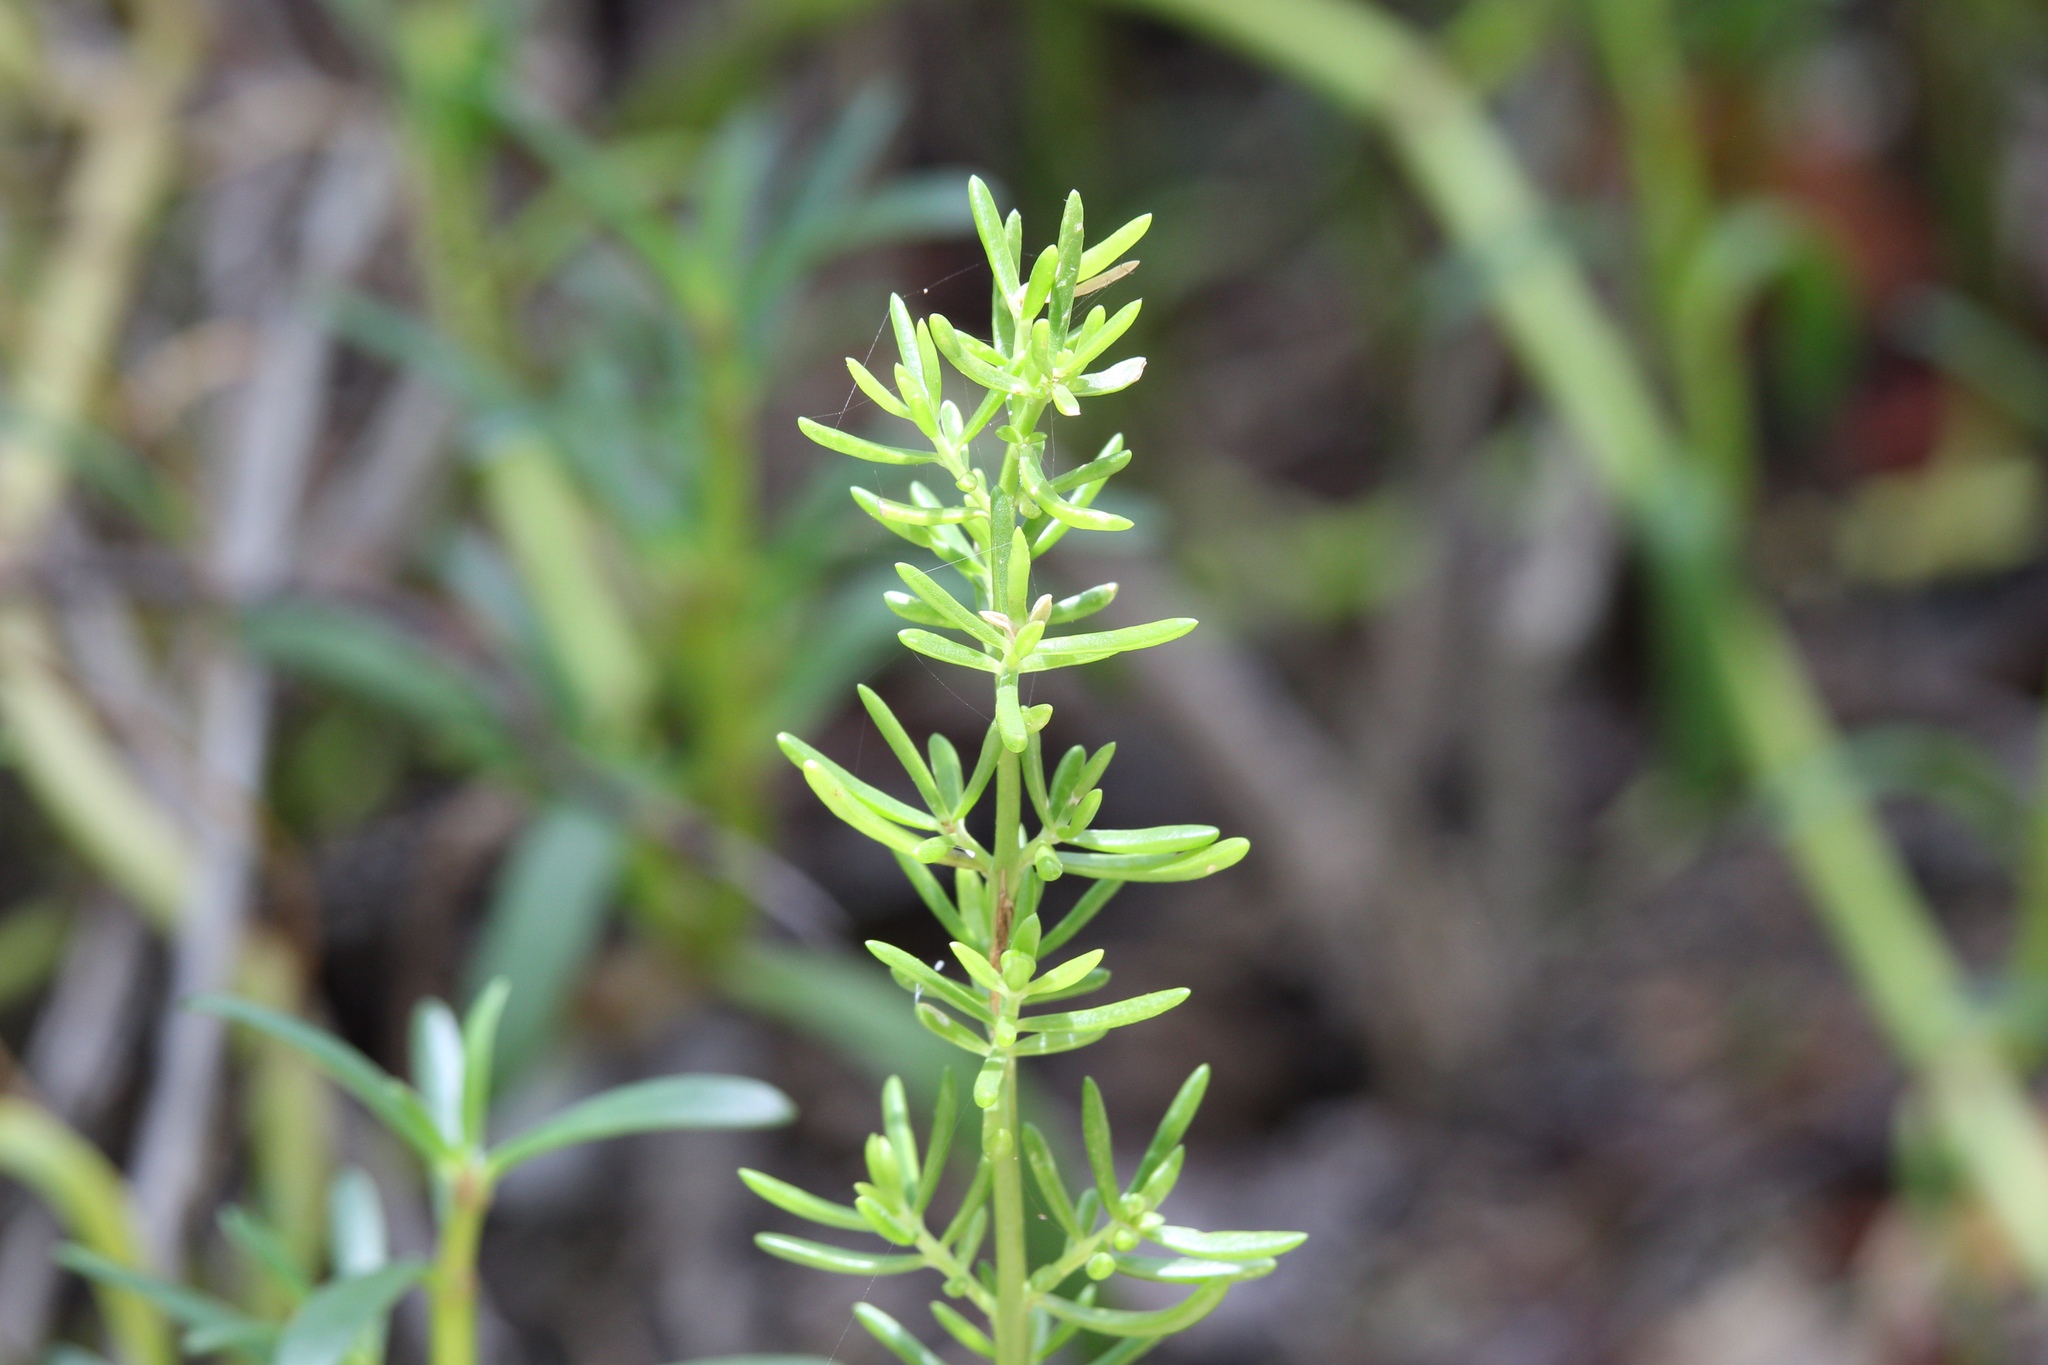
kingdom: Plantae
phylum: Tracheophyta
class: Magnoliopsida
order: Brassicales
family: Bataceae
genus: Batis
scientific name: Batis maritima
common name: Turtleweed
